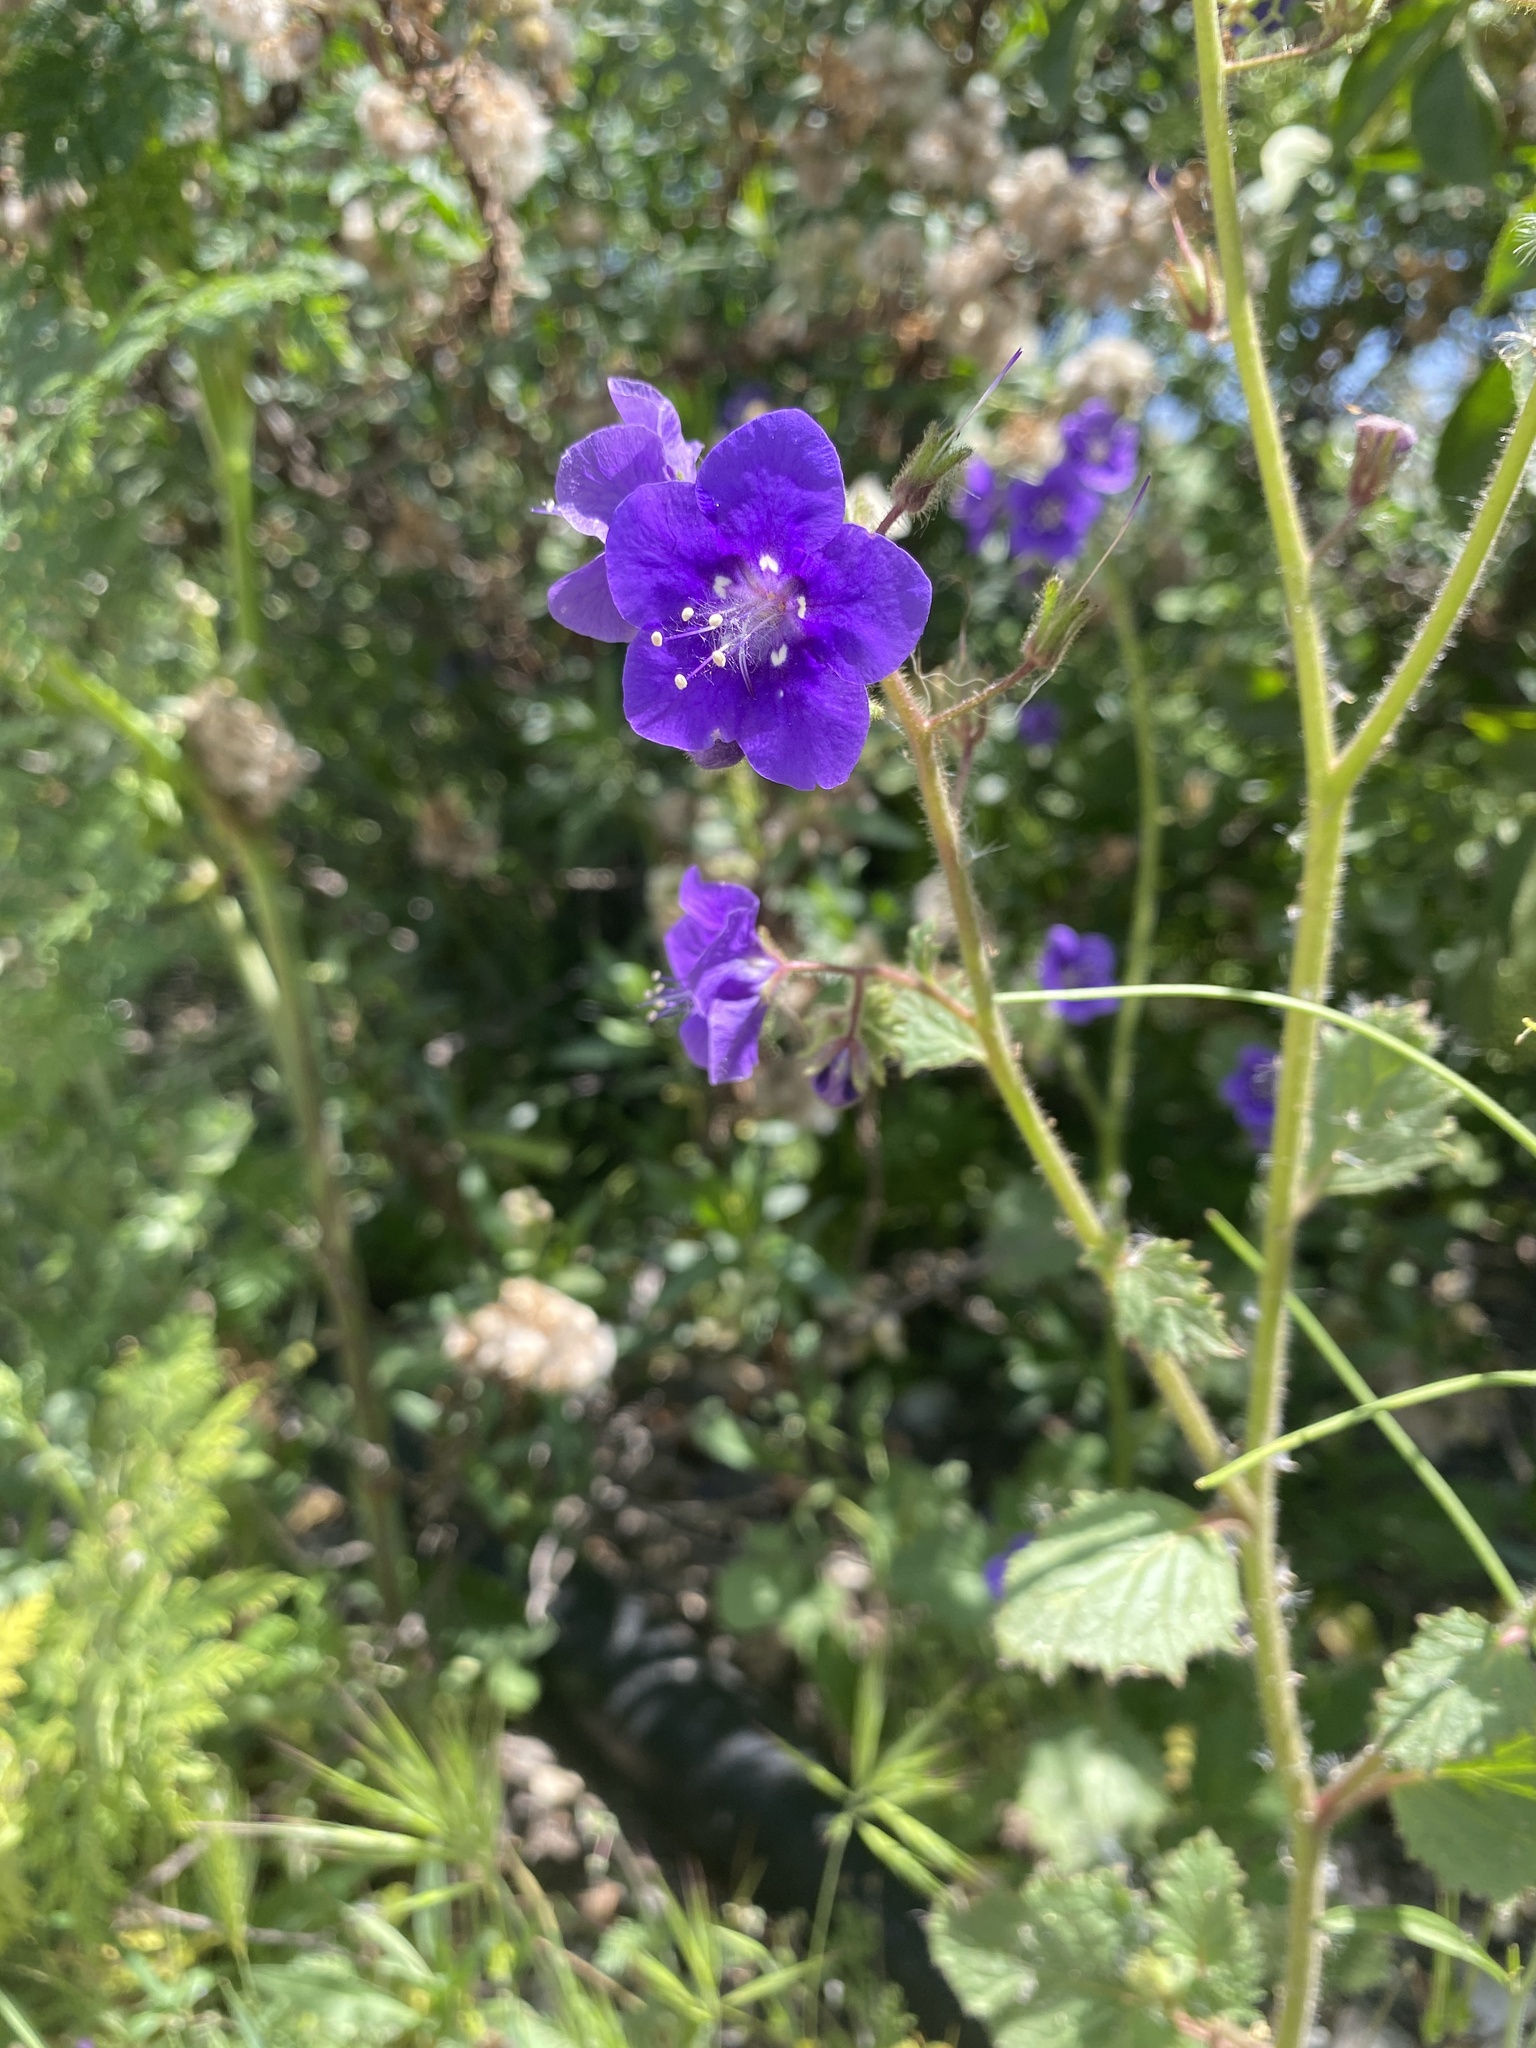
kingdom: Plantae
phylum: Tracheophyta
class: Magnoliopsida
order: Boraginales
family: Hydrophyllaceae
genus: Phacelia
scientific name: Phacelia parryi
